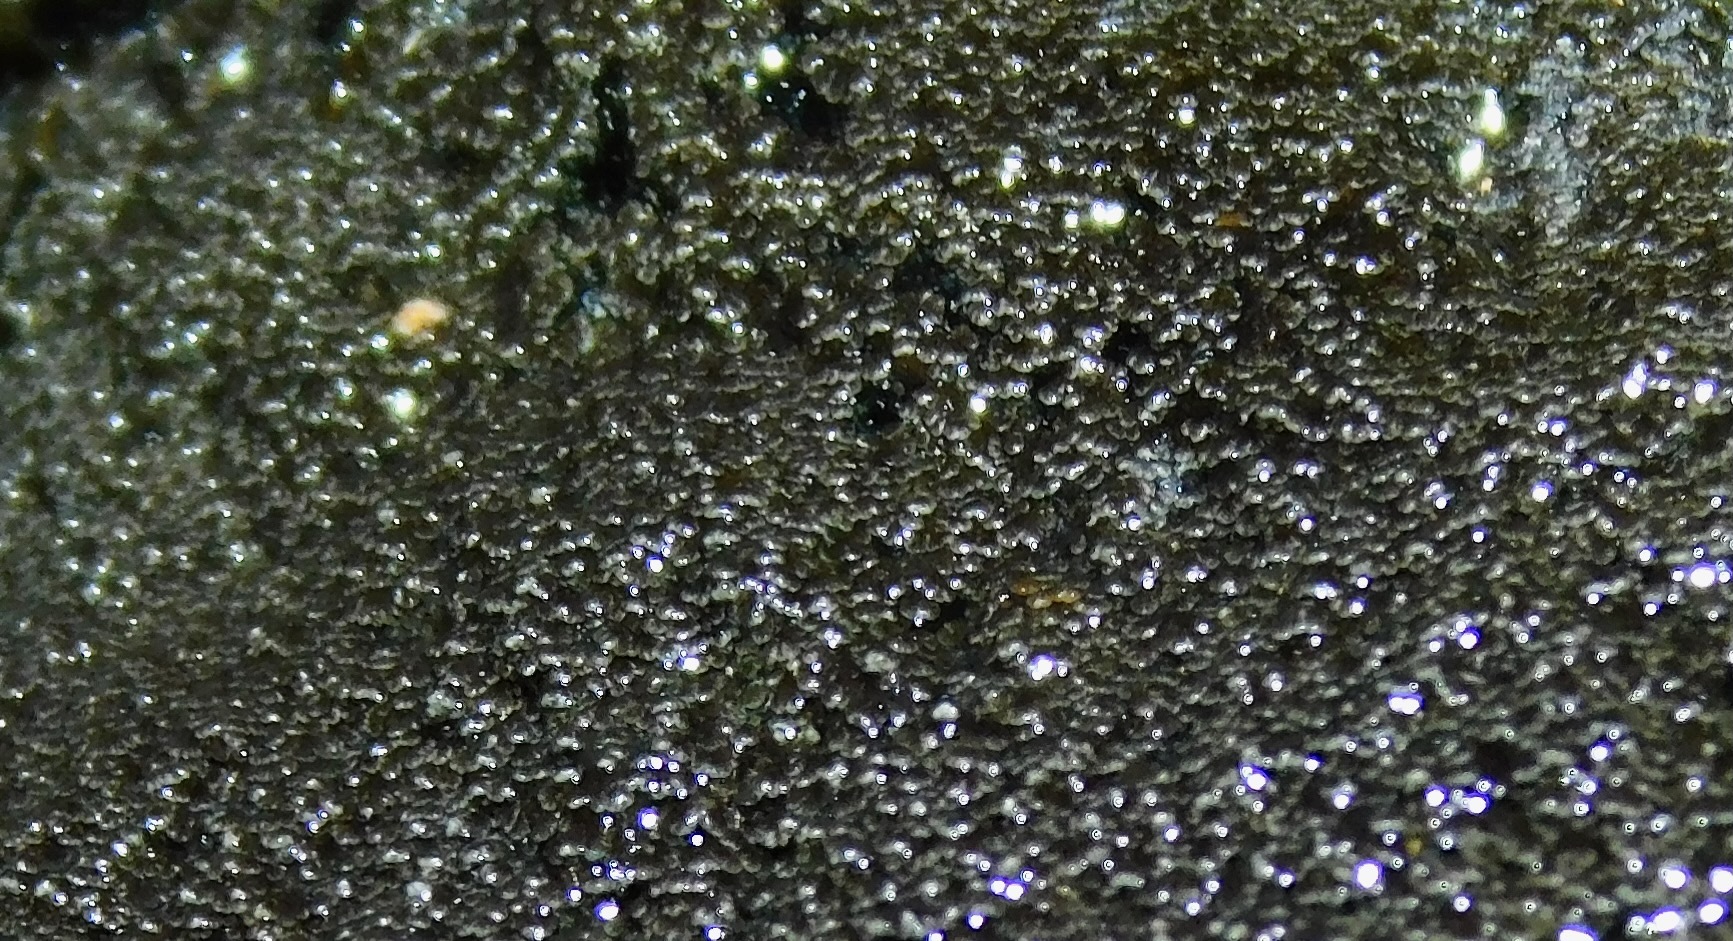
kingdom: Fungi
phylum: Ascomycota
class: Lecanoromycetes
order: Peltigerales
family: Vahliellaceae
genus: Vahliella
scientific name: Vahliella leucophaea
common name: Rock shingle lichen
